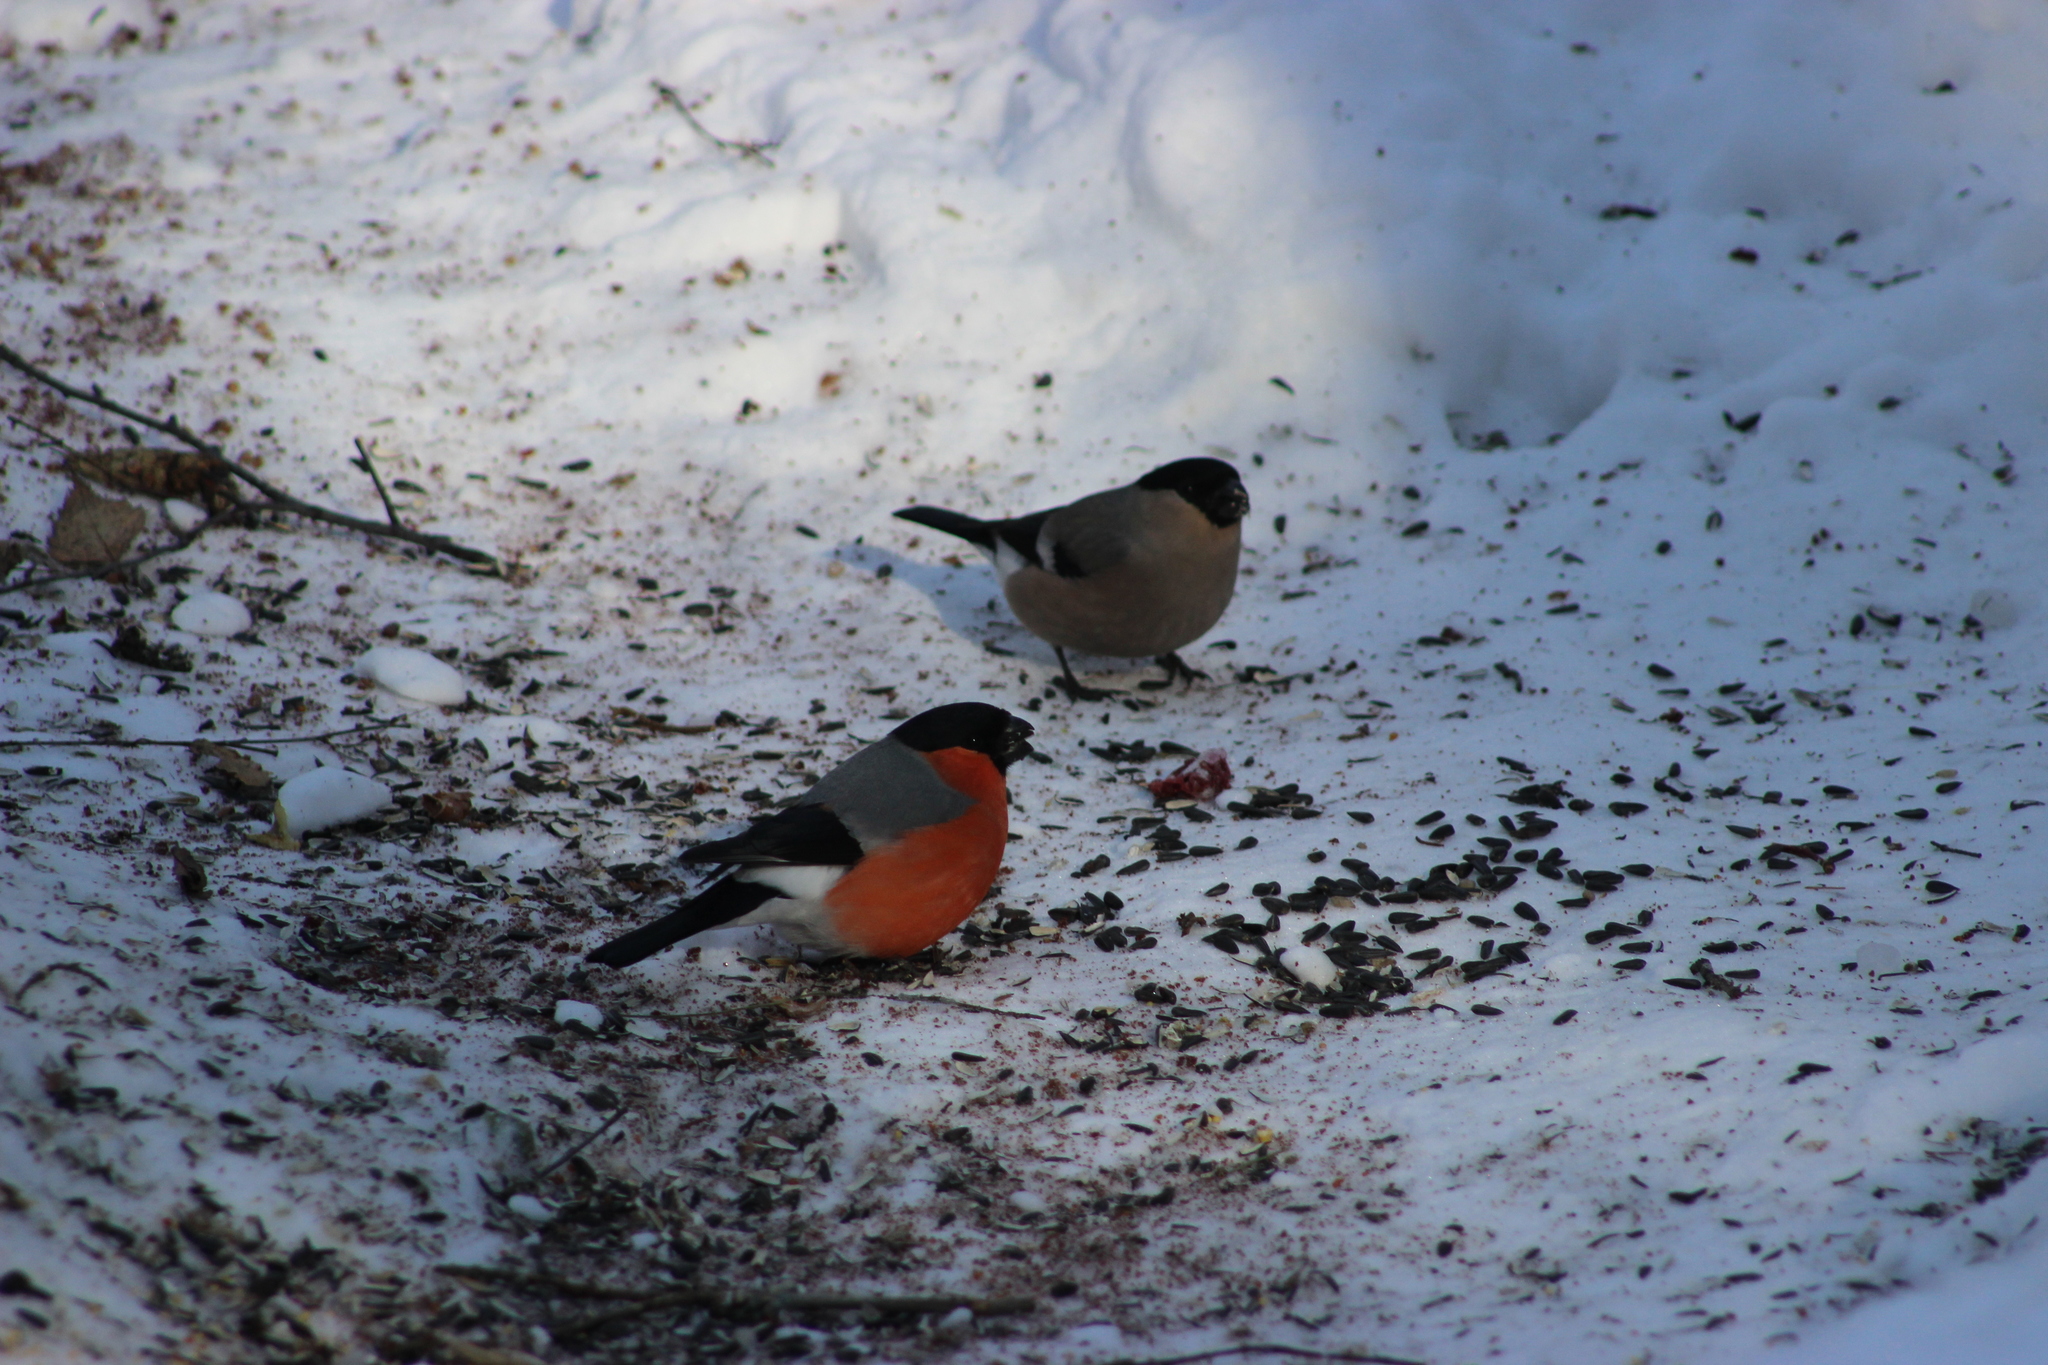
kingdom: Animalia
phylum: Chordata
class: Aves
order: Passeriformes
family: Fringillidae
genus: Pyrrhula
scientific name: Pyrrhula pyrrhula
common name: Eurasian bullfinch
